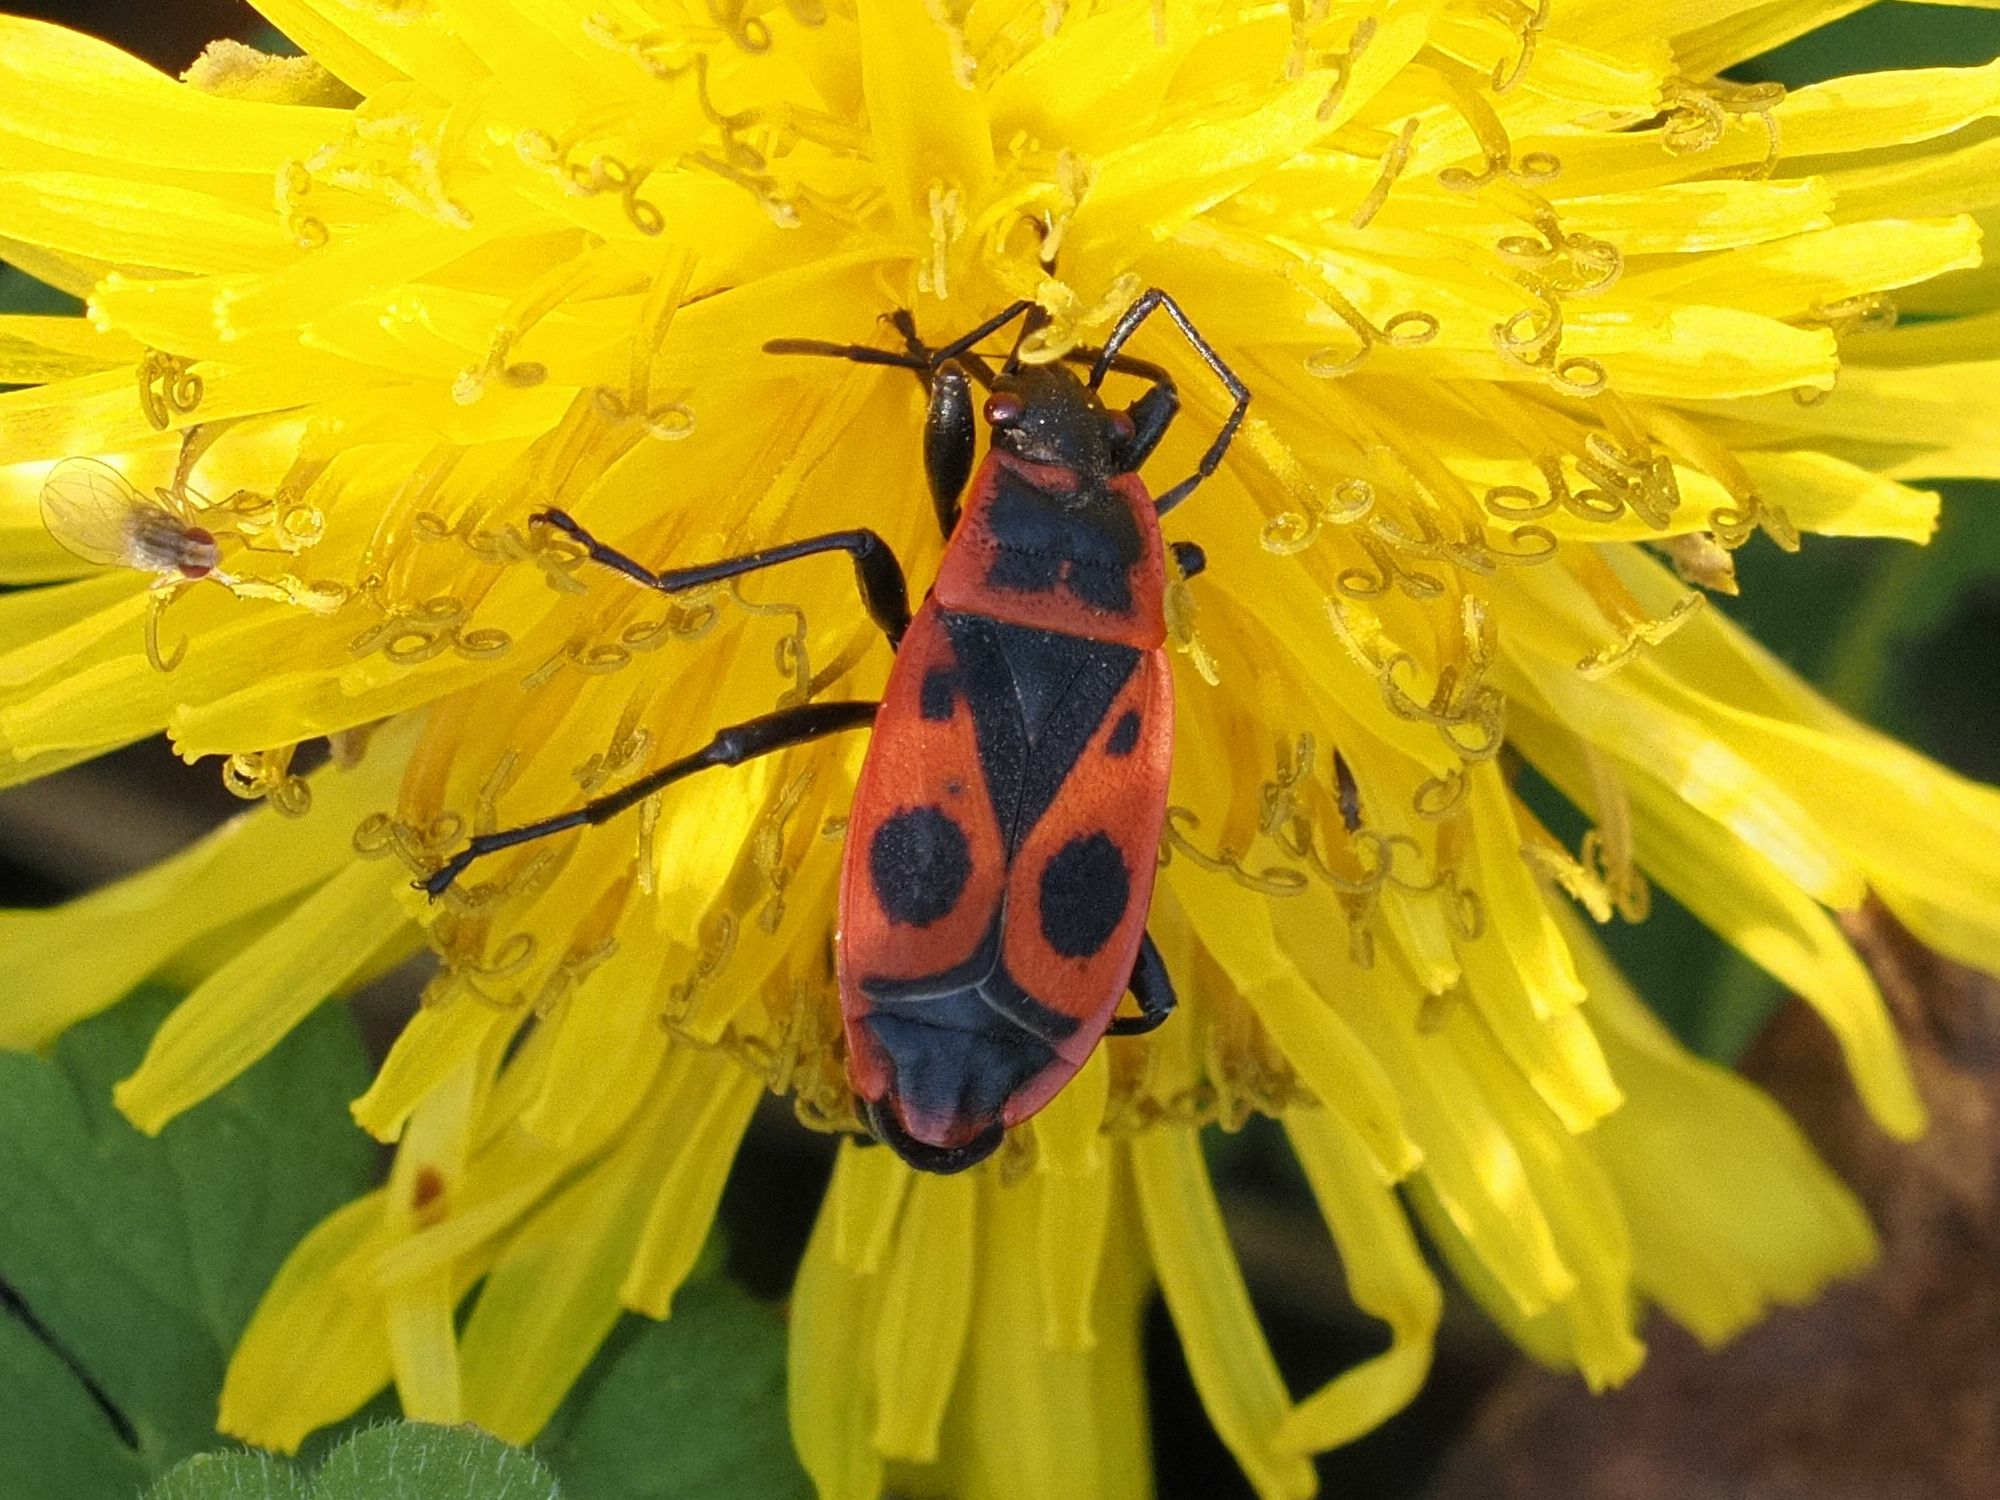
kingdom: Animalia
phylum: Arthropoda
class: Insecta
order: Hemiptera
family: Pyrrhocoridae
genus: Pyrrhocoris
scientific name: Pyrrhocoris apterus
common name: Firebug
